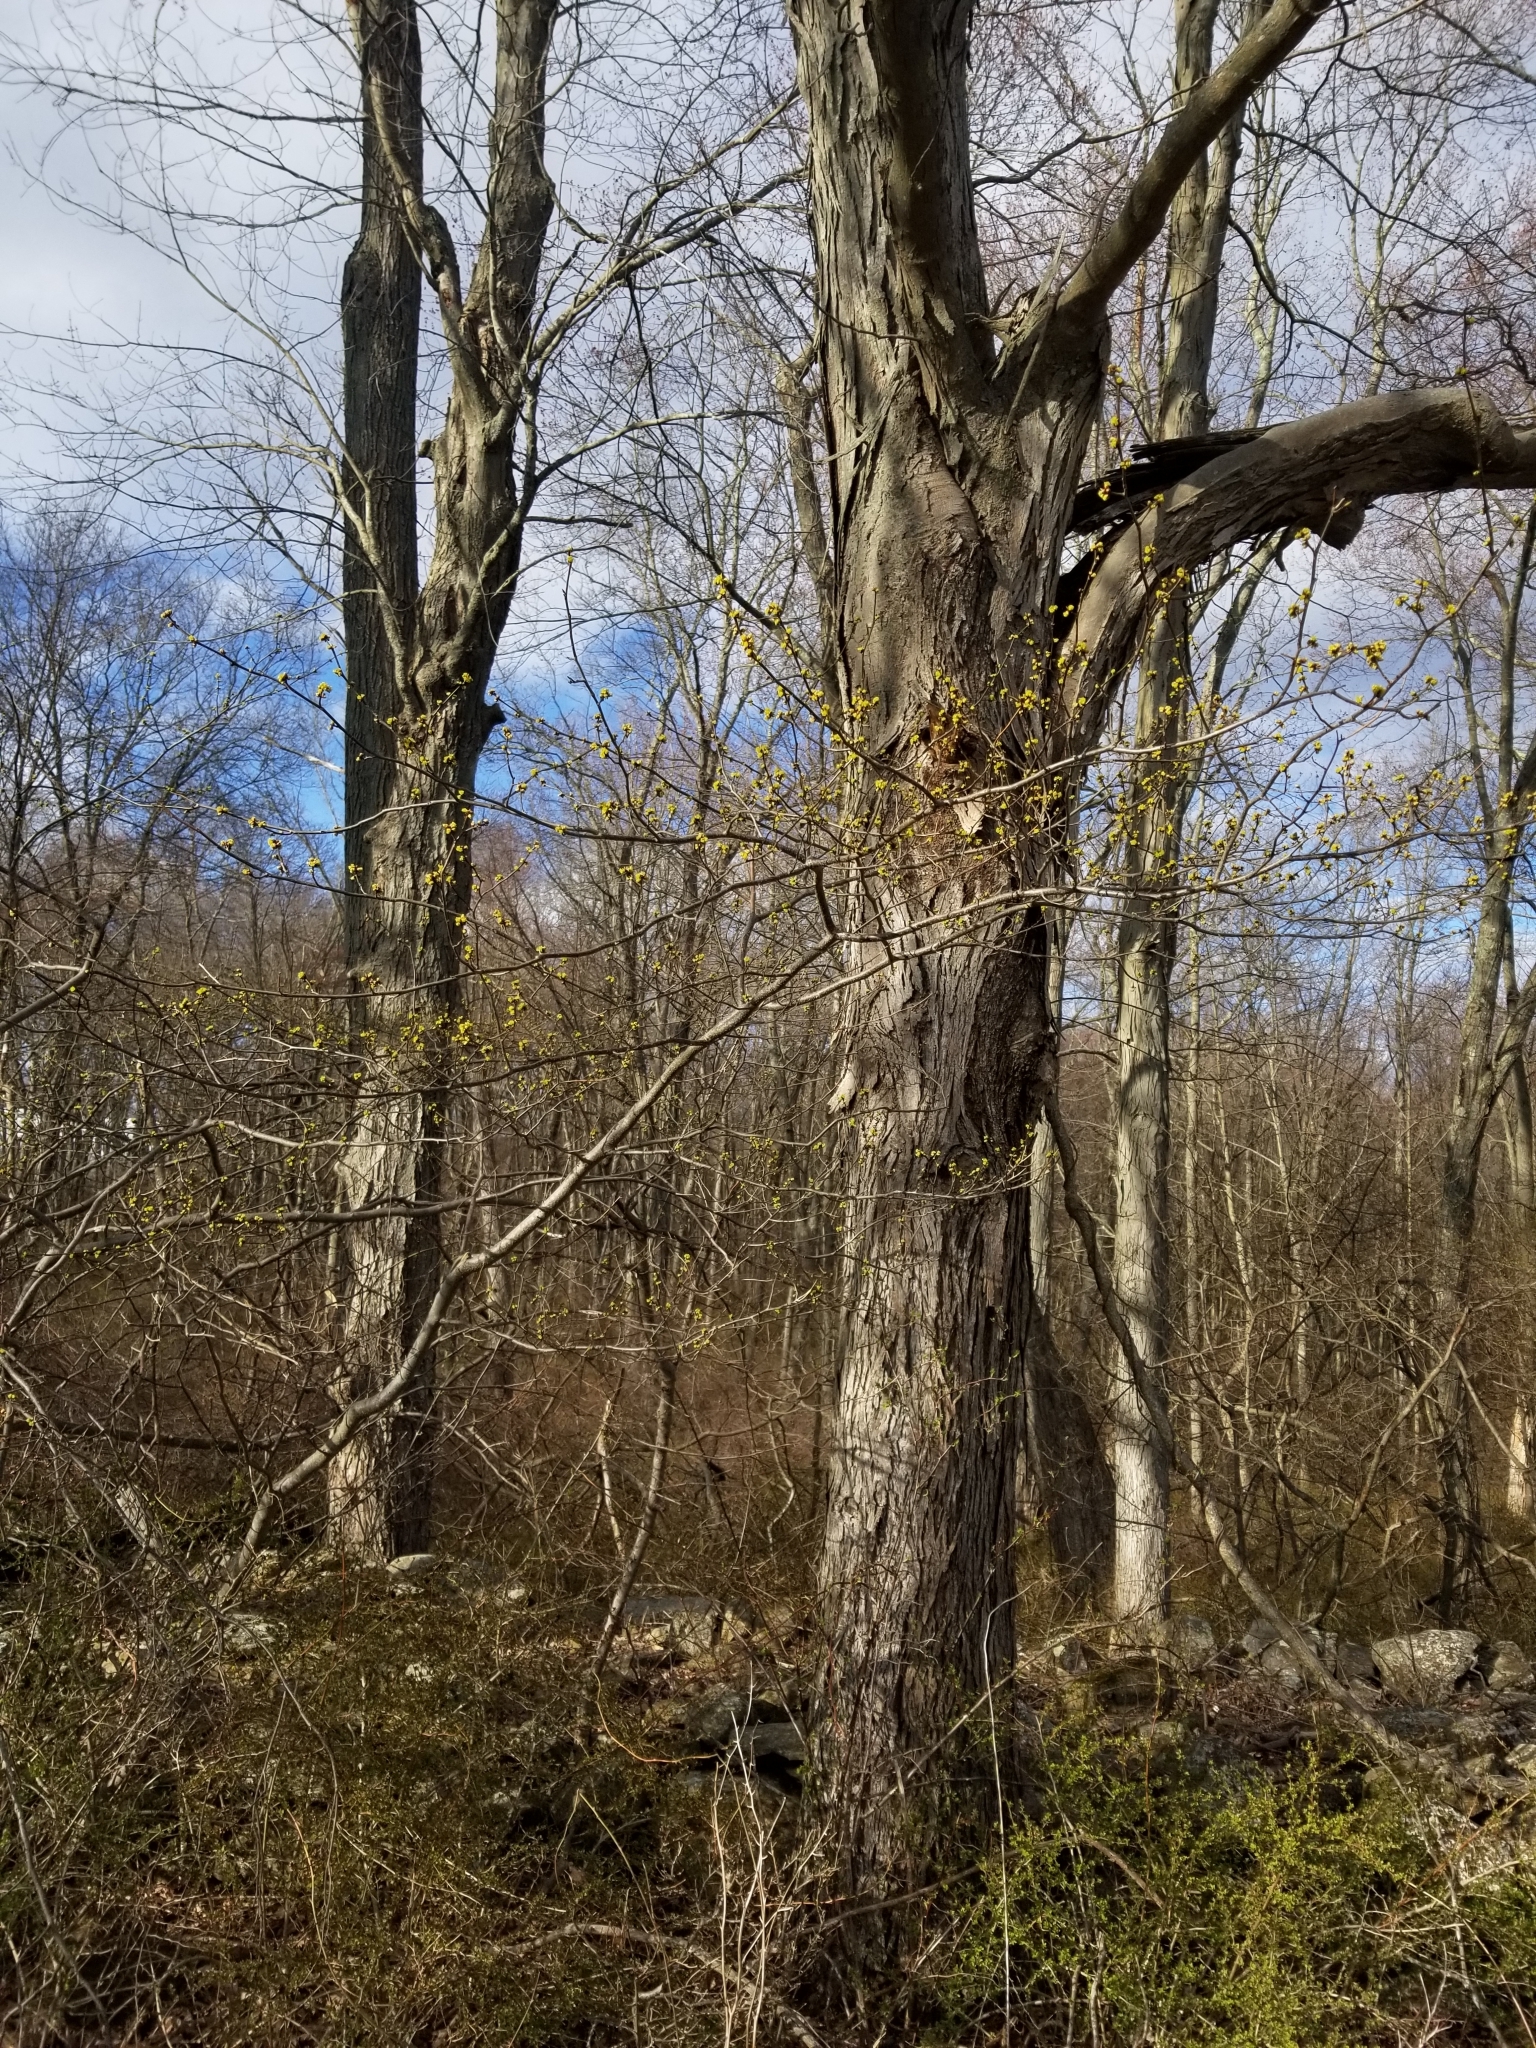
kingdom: Plantae
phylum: Tracheophyta
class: Magnoliopsida
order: Laurales
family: Lauraceae
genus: Lindera
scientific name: Lindera benzoin
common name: Spicebush
